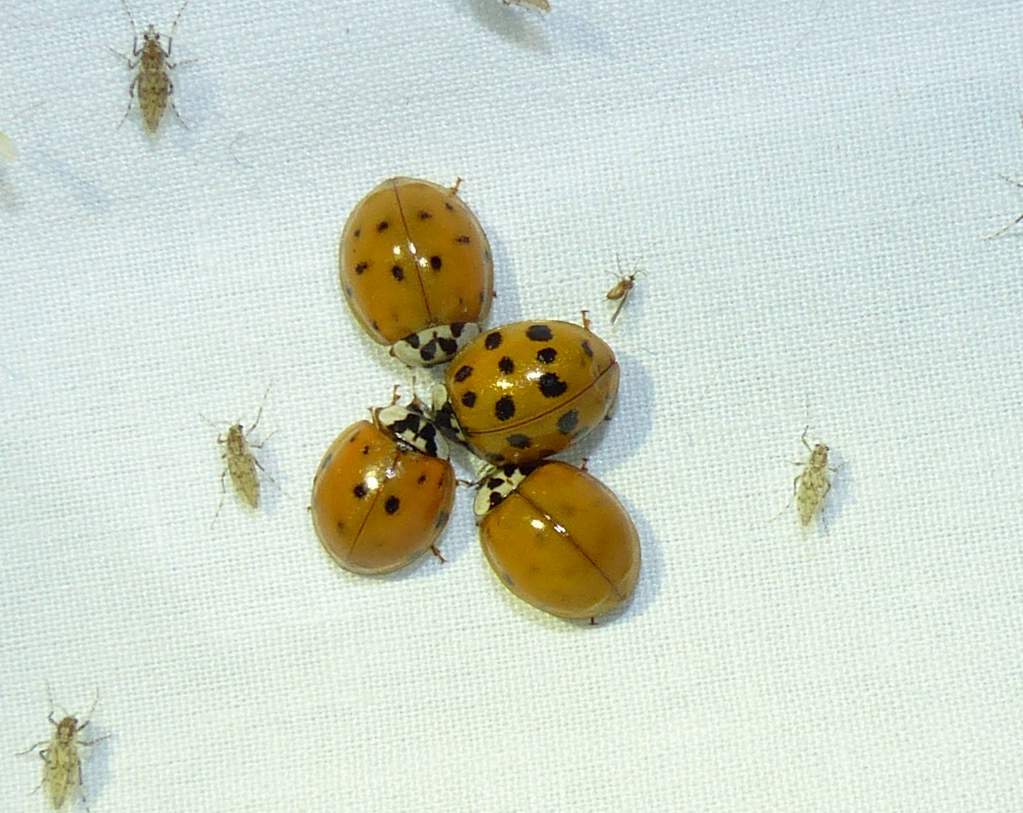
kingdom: Animalia
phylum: Arthropoda
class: Insecta
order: Coleoptera
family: Coccinellidae
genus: Harmonia
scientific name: Harmonia axyridis
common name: Harlequin ladybird
